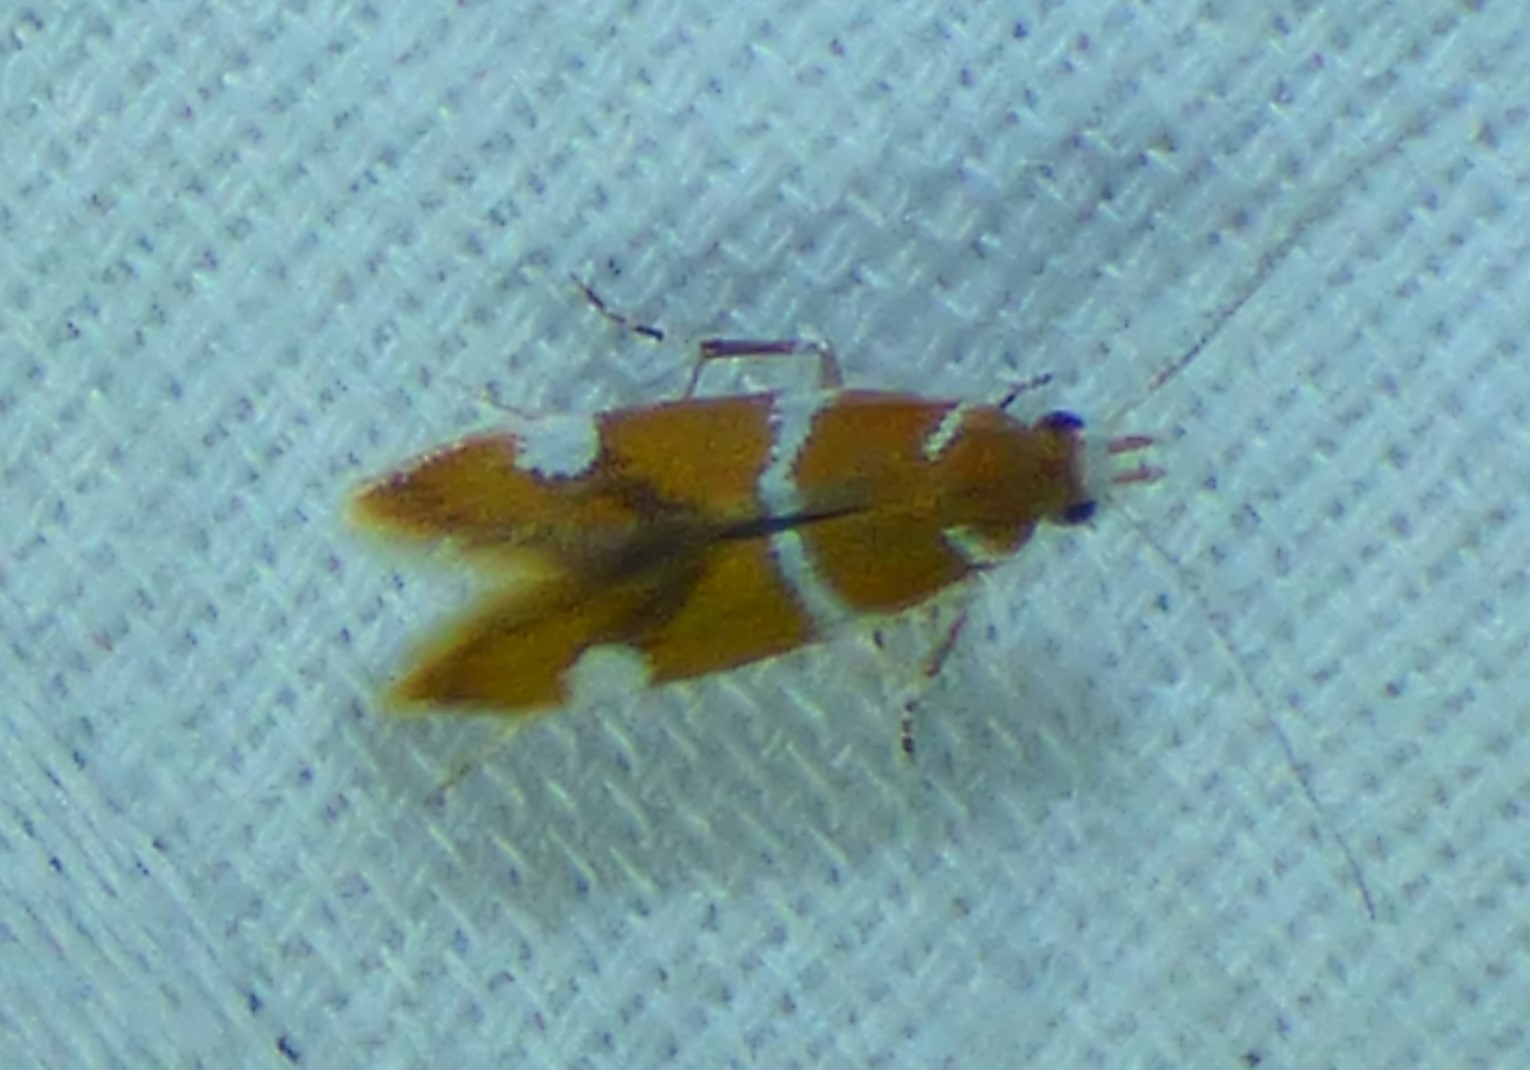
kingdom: Animalia
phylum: Arthropoda
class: Insecta
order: Lepidoptera
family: Oecophoridae
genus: Promalactis
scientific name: Promalactis suzukiella
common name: Moth
